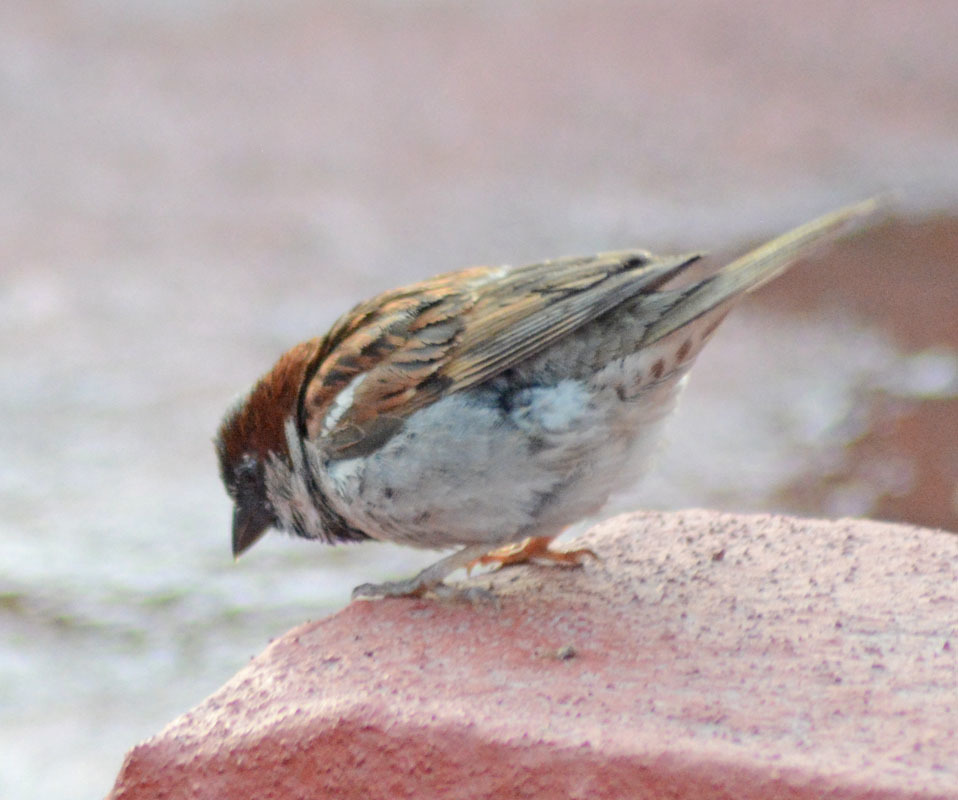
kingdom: Animalia
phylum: Chordata
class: Aves
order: Passeriformes
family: Passeridae
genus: Passer
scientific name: Passer domesticus
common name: House sparrow
